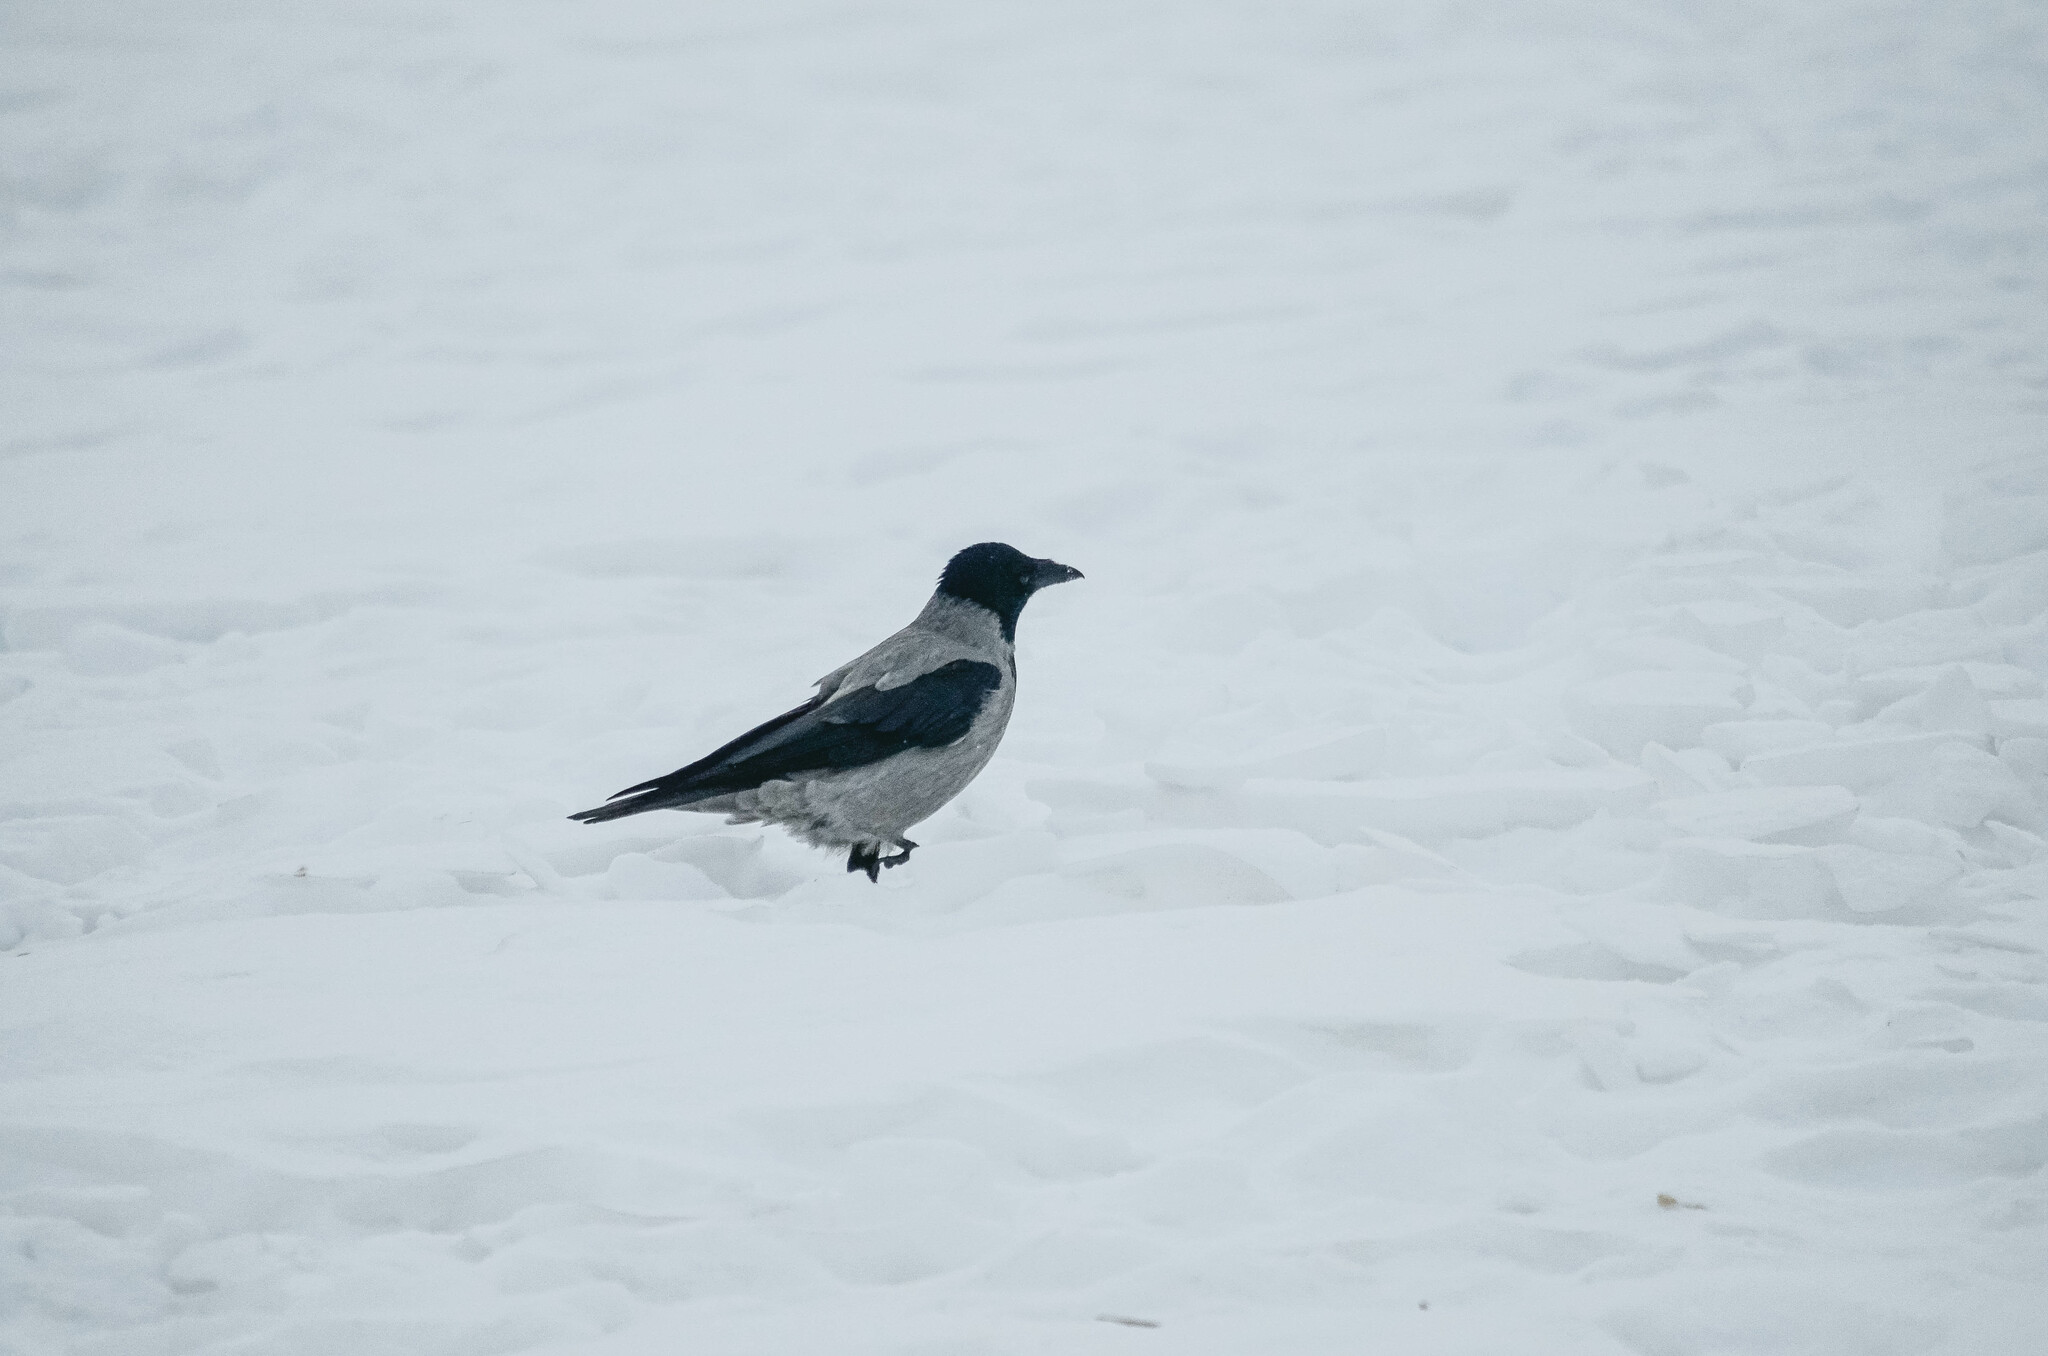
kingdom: Animalia
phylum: Chordata
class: Aves
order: Passeriformes
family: Corvidae
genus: Corvus
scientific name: Corvus cornix
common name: Hooded crow
